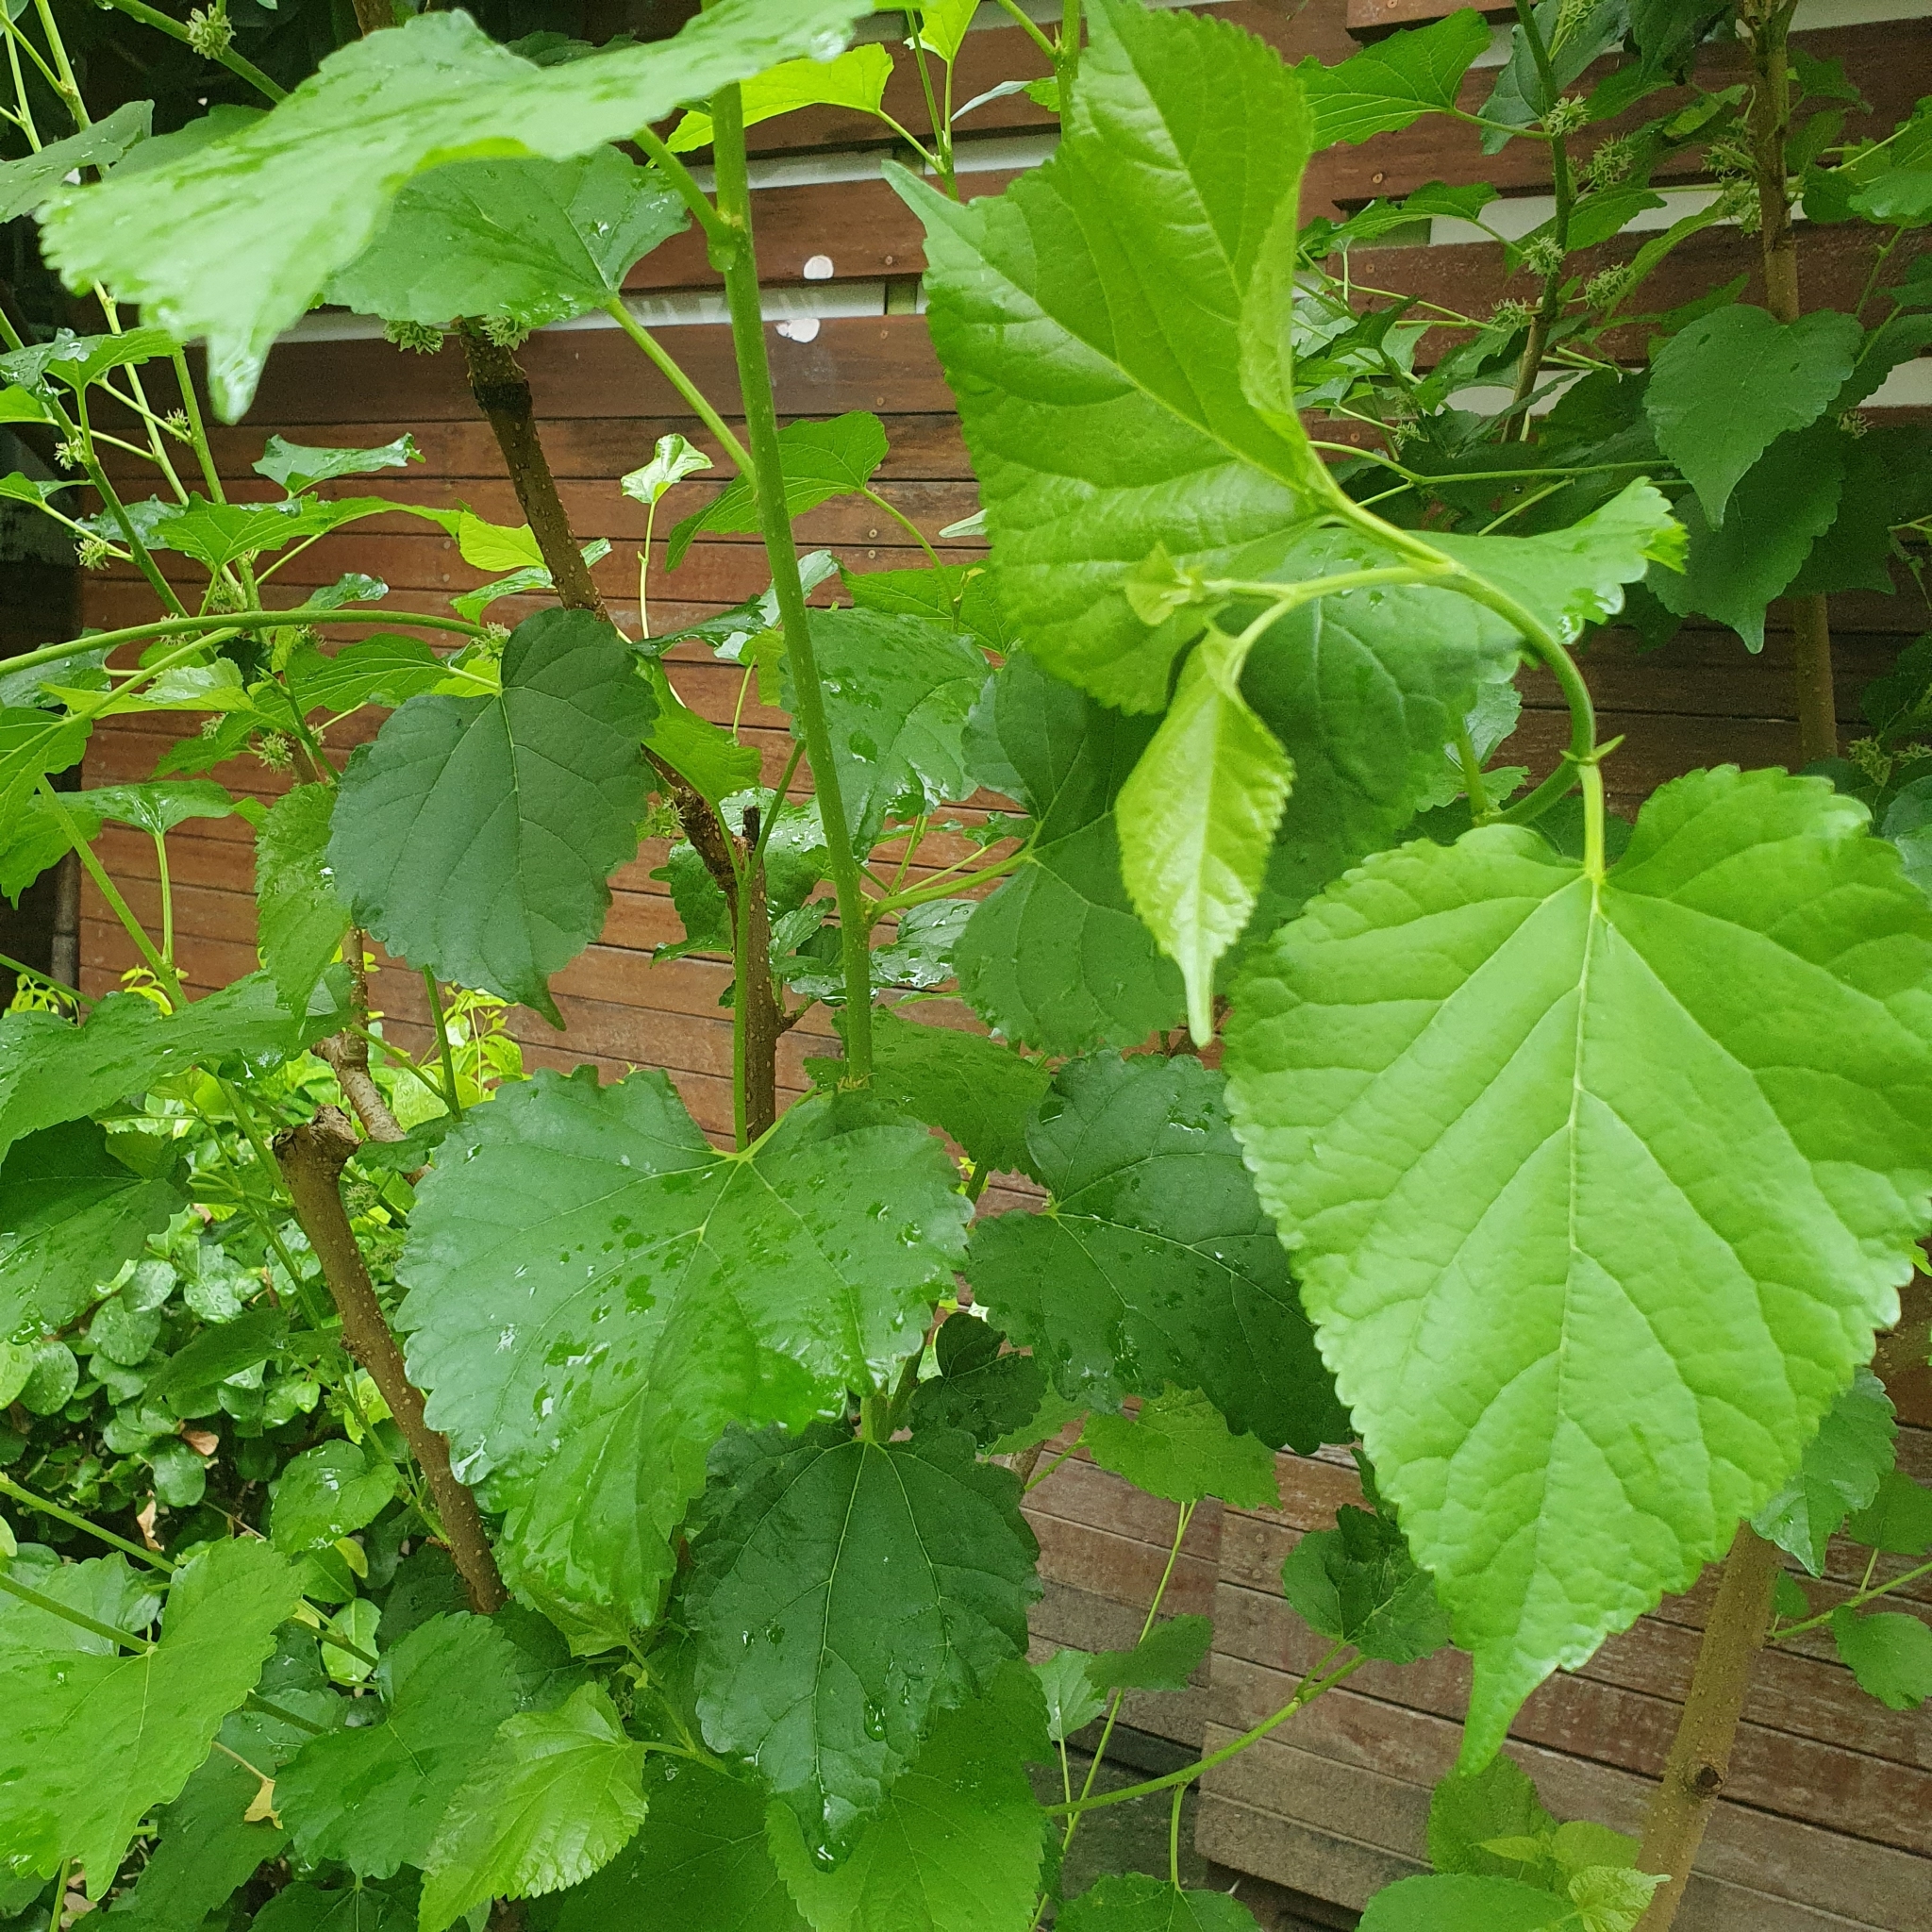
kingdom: Plantae
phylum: Tracheophyta
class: Magnoliopsida
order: Rosales
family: Moraceae
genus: Morus
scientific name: Morus indica
